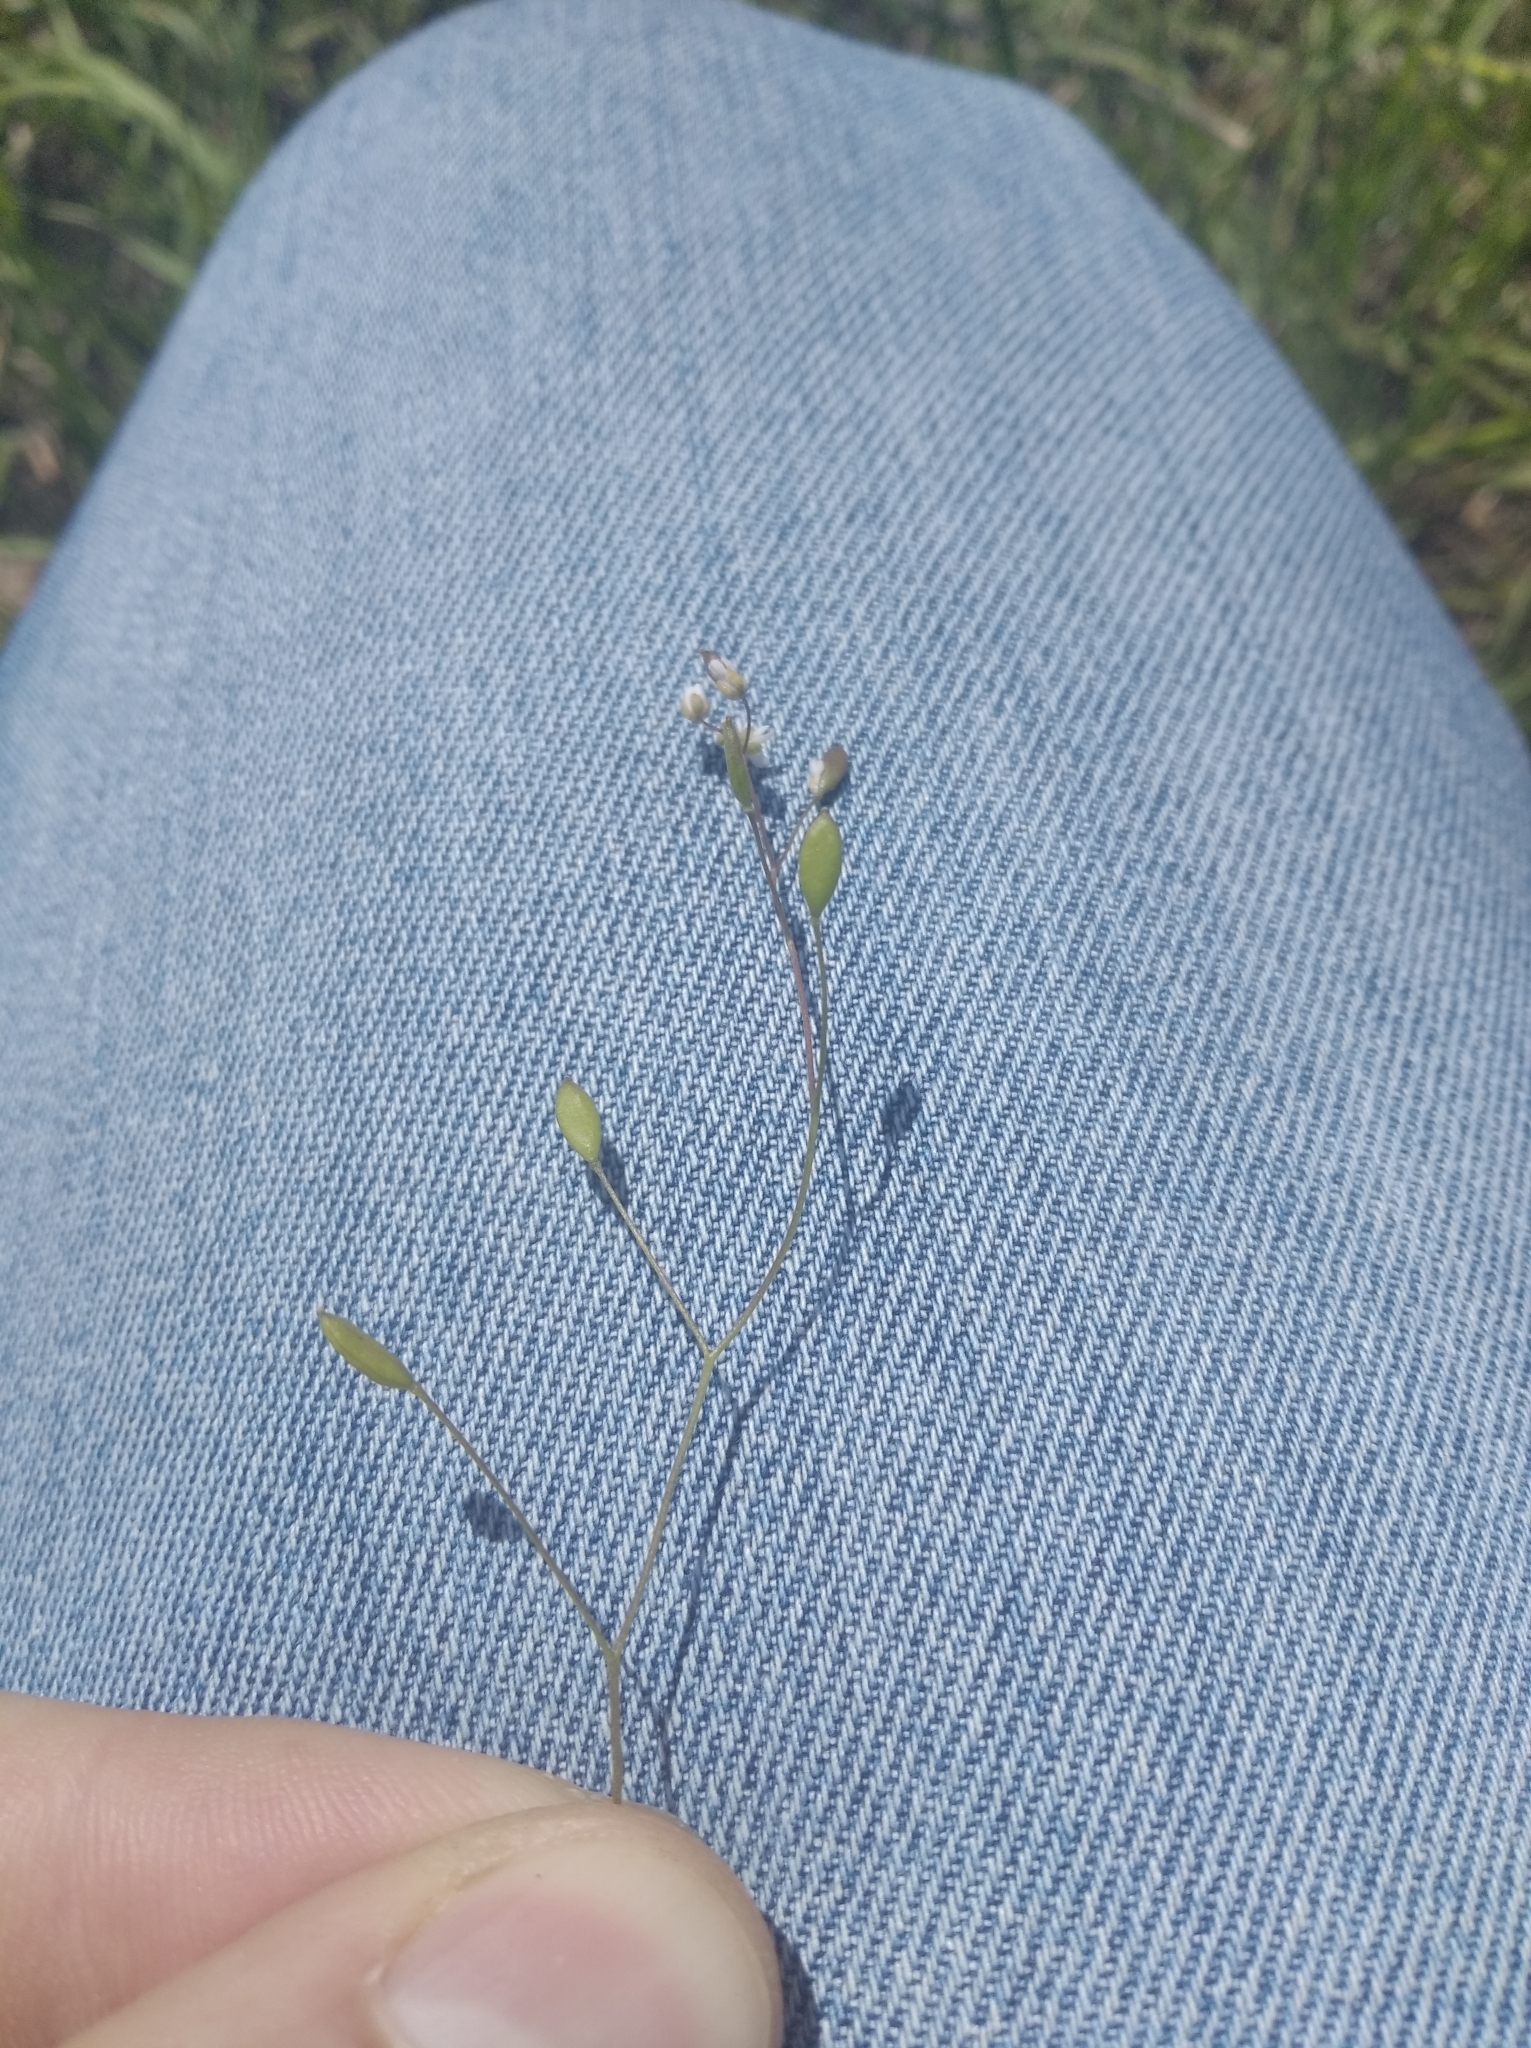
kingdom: Plantae
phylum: Tracheophyta
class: Magnoliopsida
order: Brassicales
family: Brassicaceae
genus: Draba
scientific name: Draba verna
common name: Spring draba
